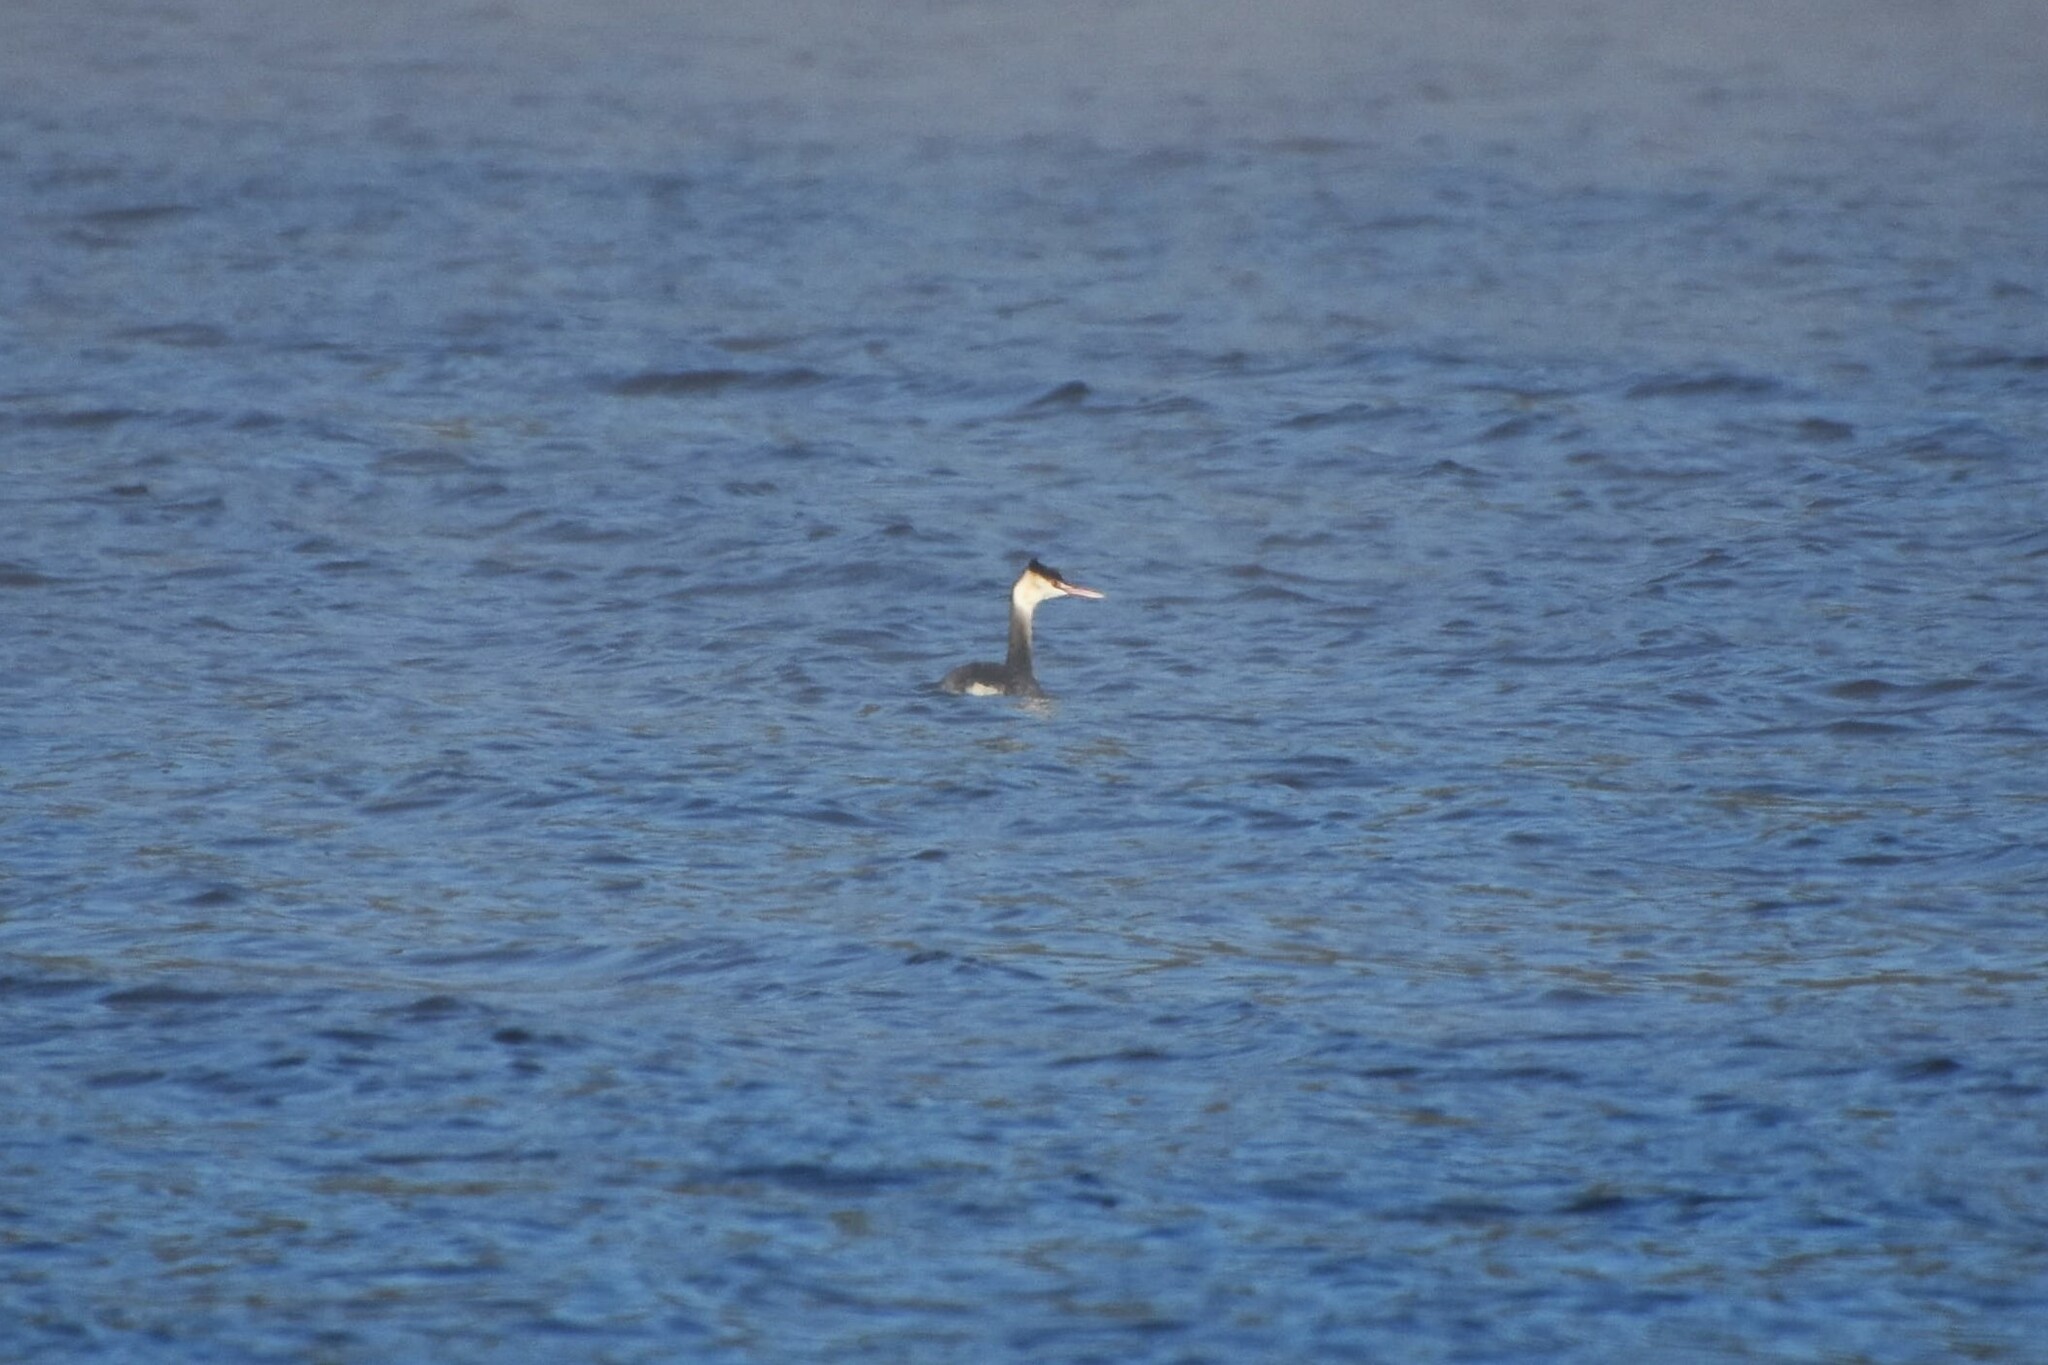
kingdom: Animalia
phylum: Chordata
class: Aves
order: Podicipediformes
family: Podicipedidae
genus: Podiceps
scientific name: Podiceps cristatus
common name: Great crested grebe
